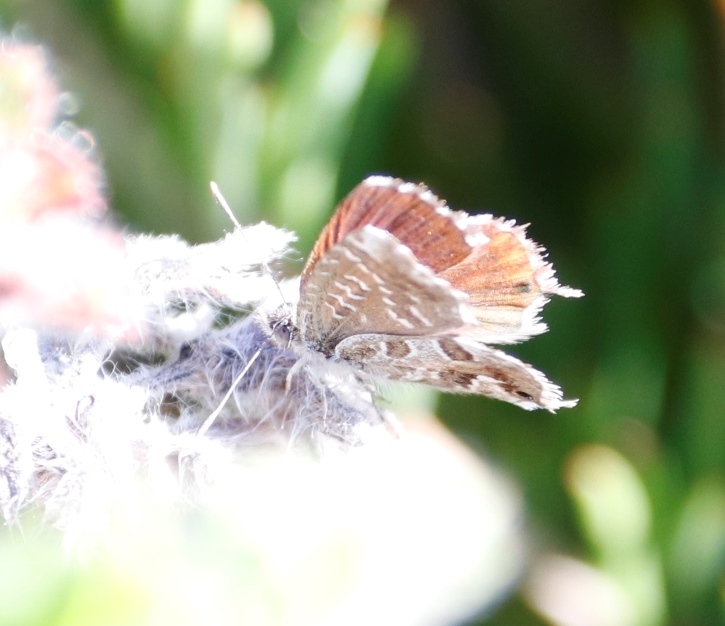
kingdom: Animalia
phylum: Arthropoda
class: Insecta
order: Lepidoptera
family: Lycaenidae
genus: Cacyreus
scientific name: Cacyreus fracta
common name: Water bronze
